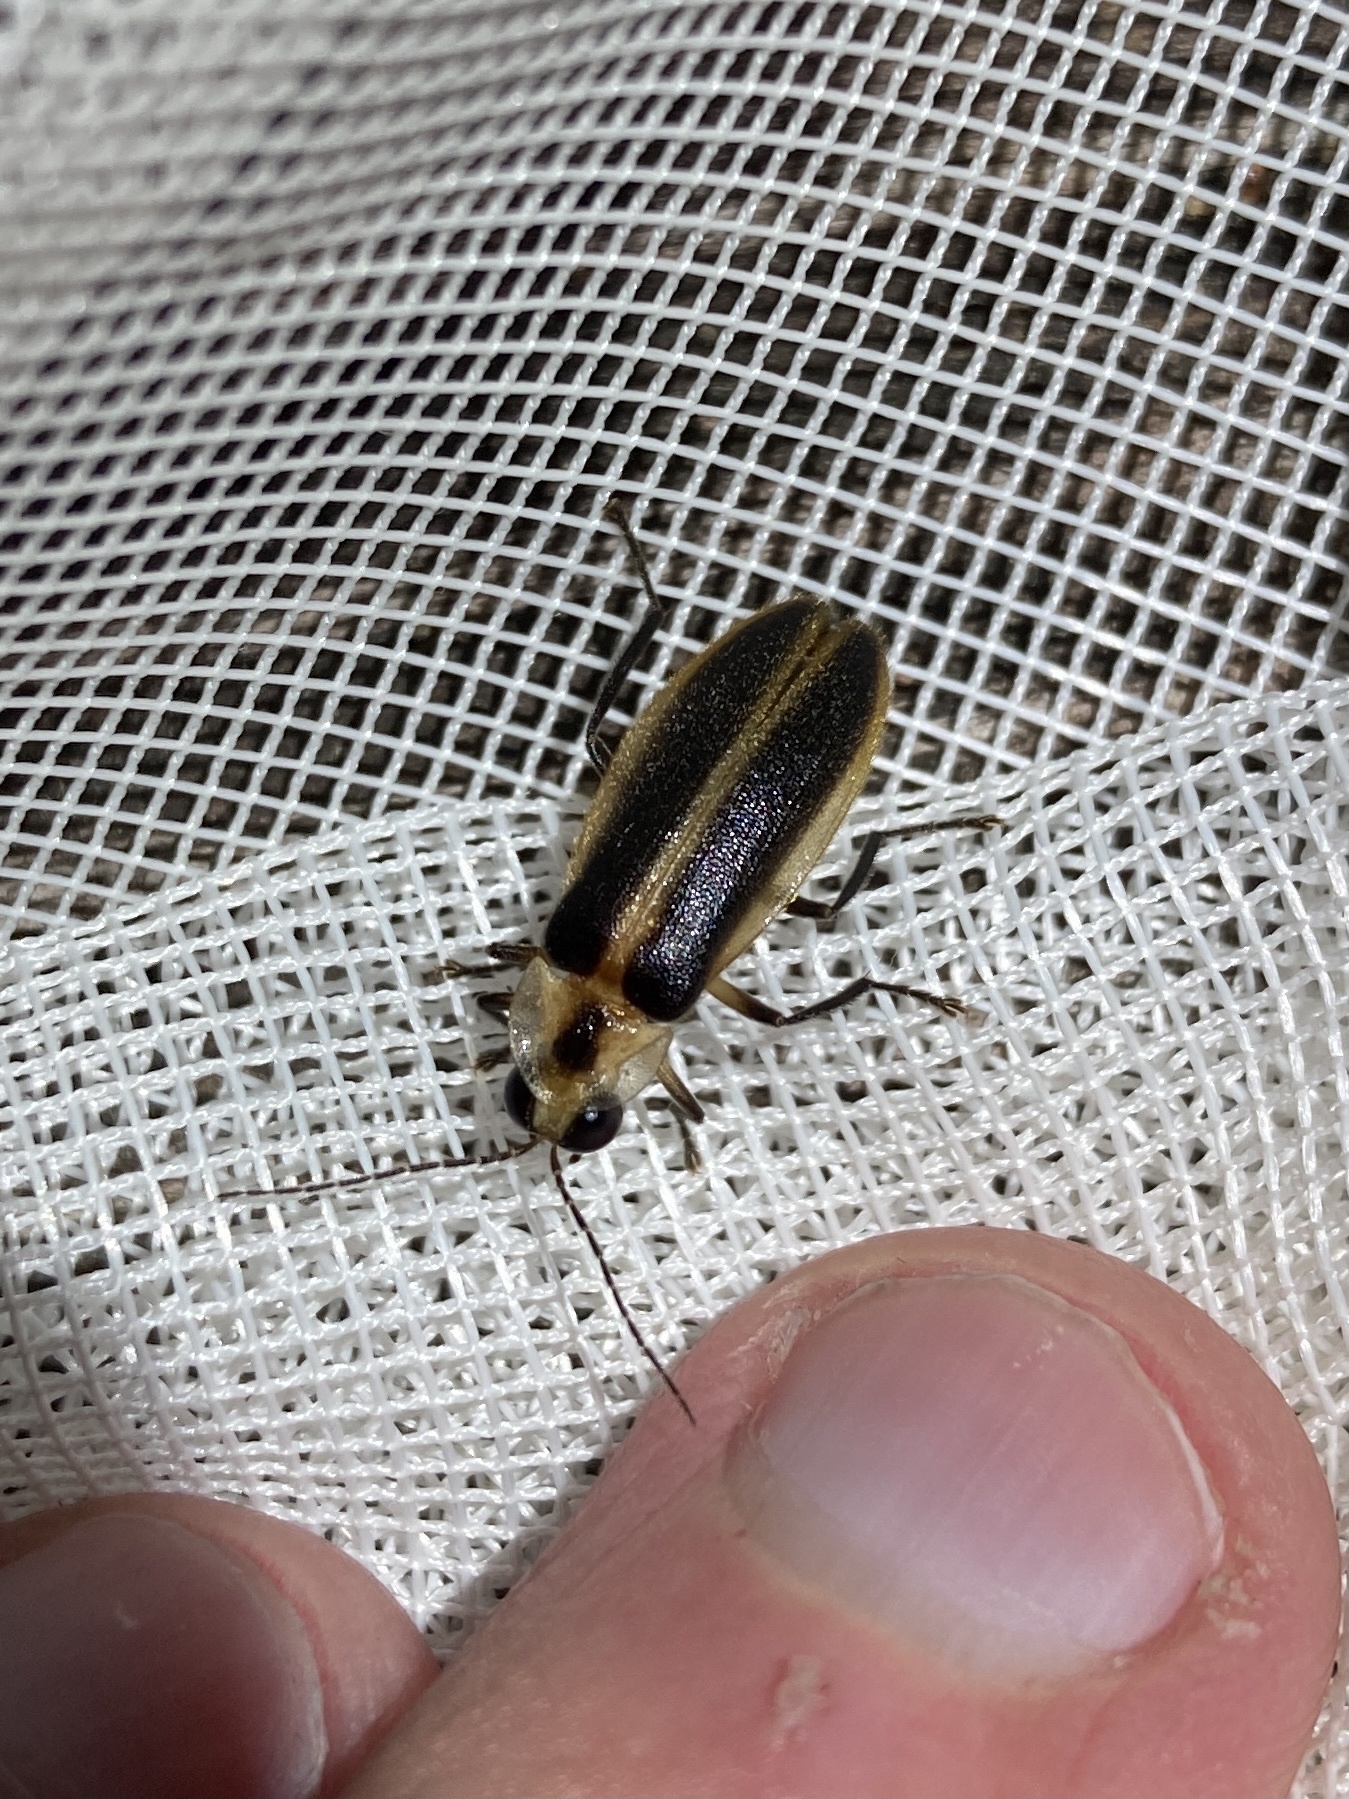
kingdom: Animalia
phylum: Arthropoda
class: Insecta
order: Coleoptera
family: Lampyridae
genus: Photuris
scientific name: Photuris frontalis
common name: Snappy single sync
